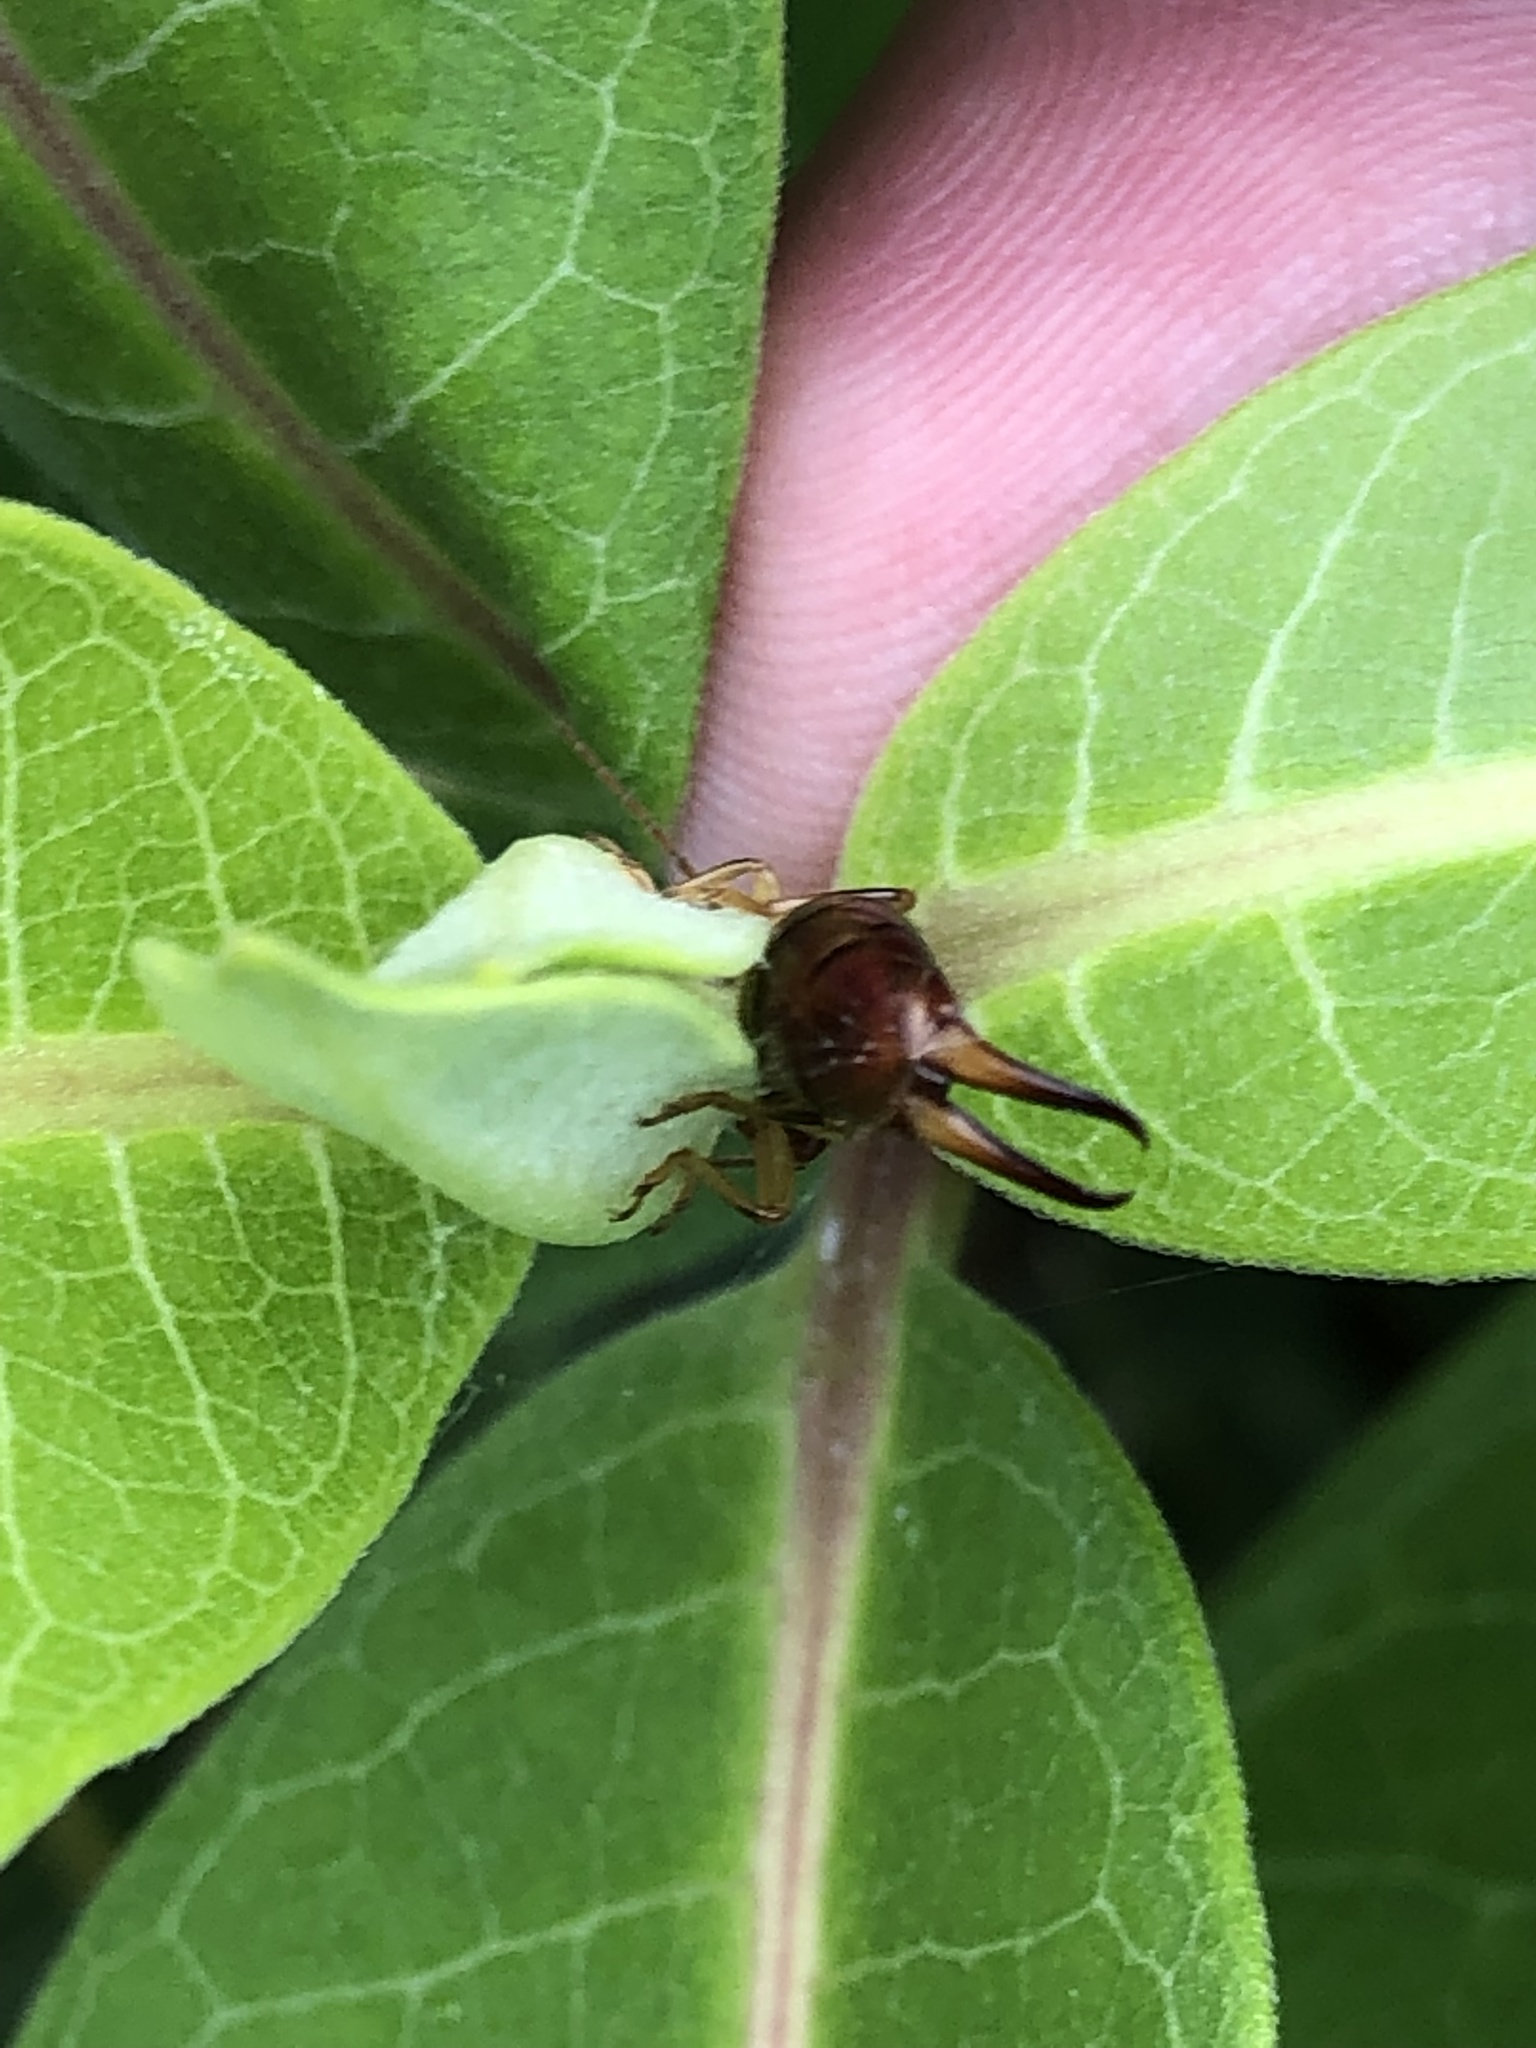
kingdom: Animalia
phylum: Arthropoda
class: Insecta
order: Dermaptera
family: Forficulidae
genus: Forficula
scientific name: Forficula
